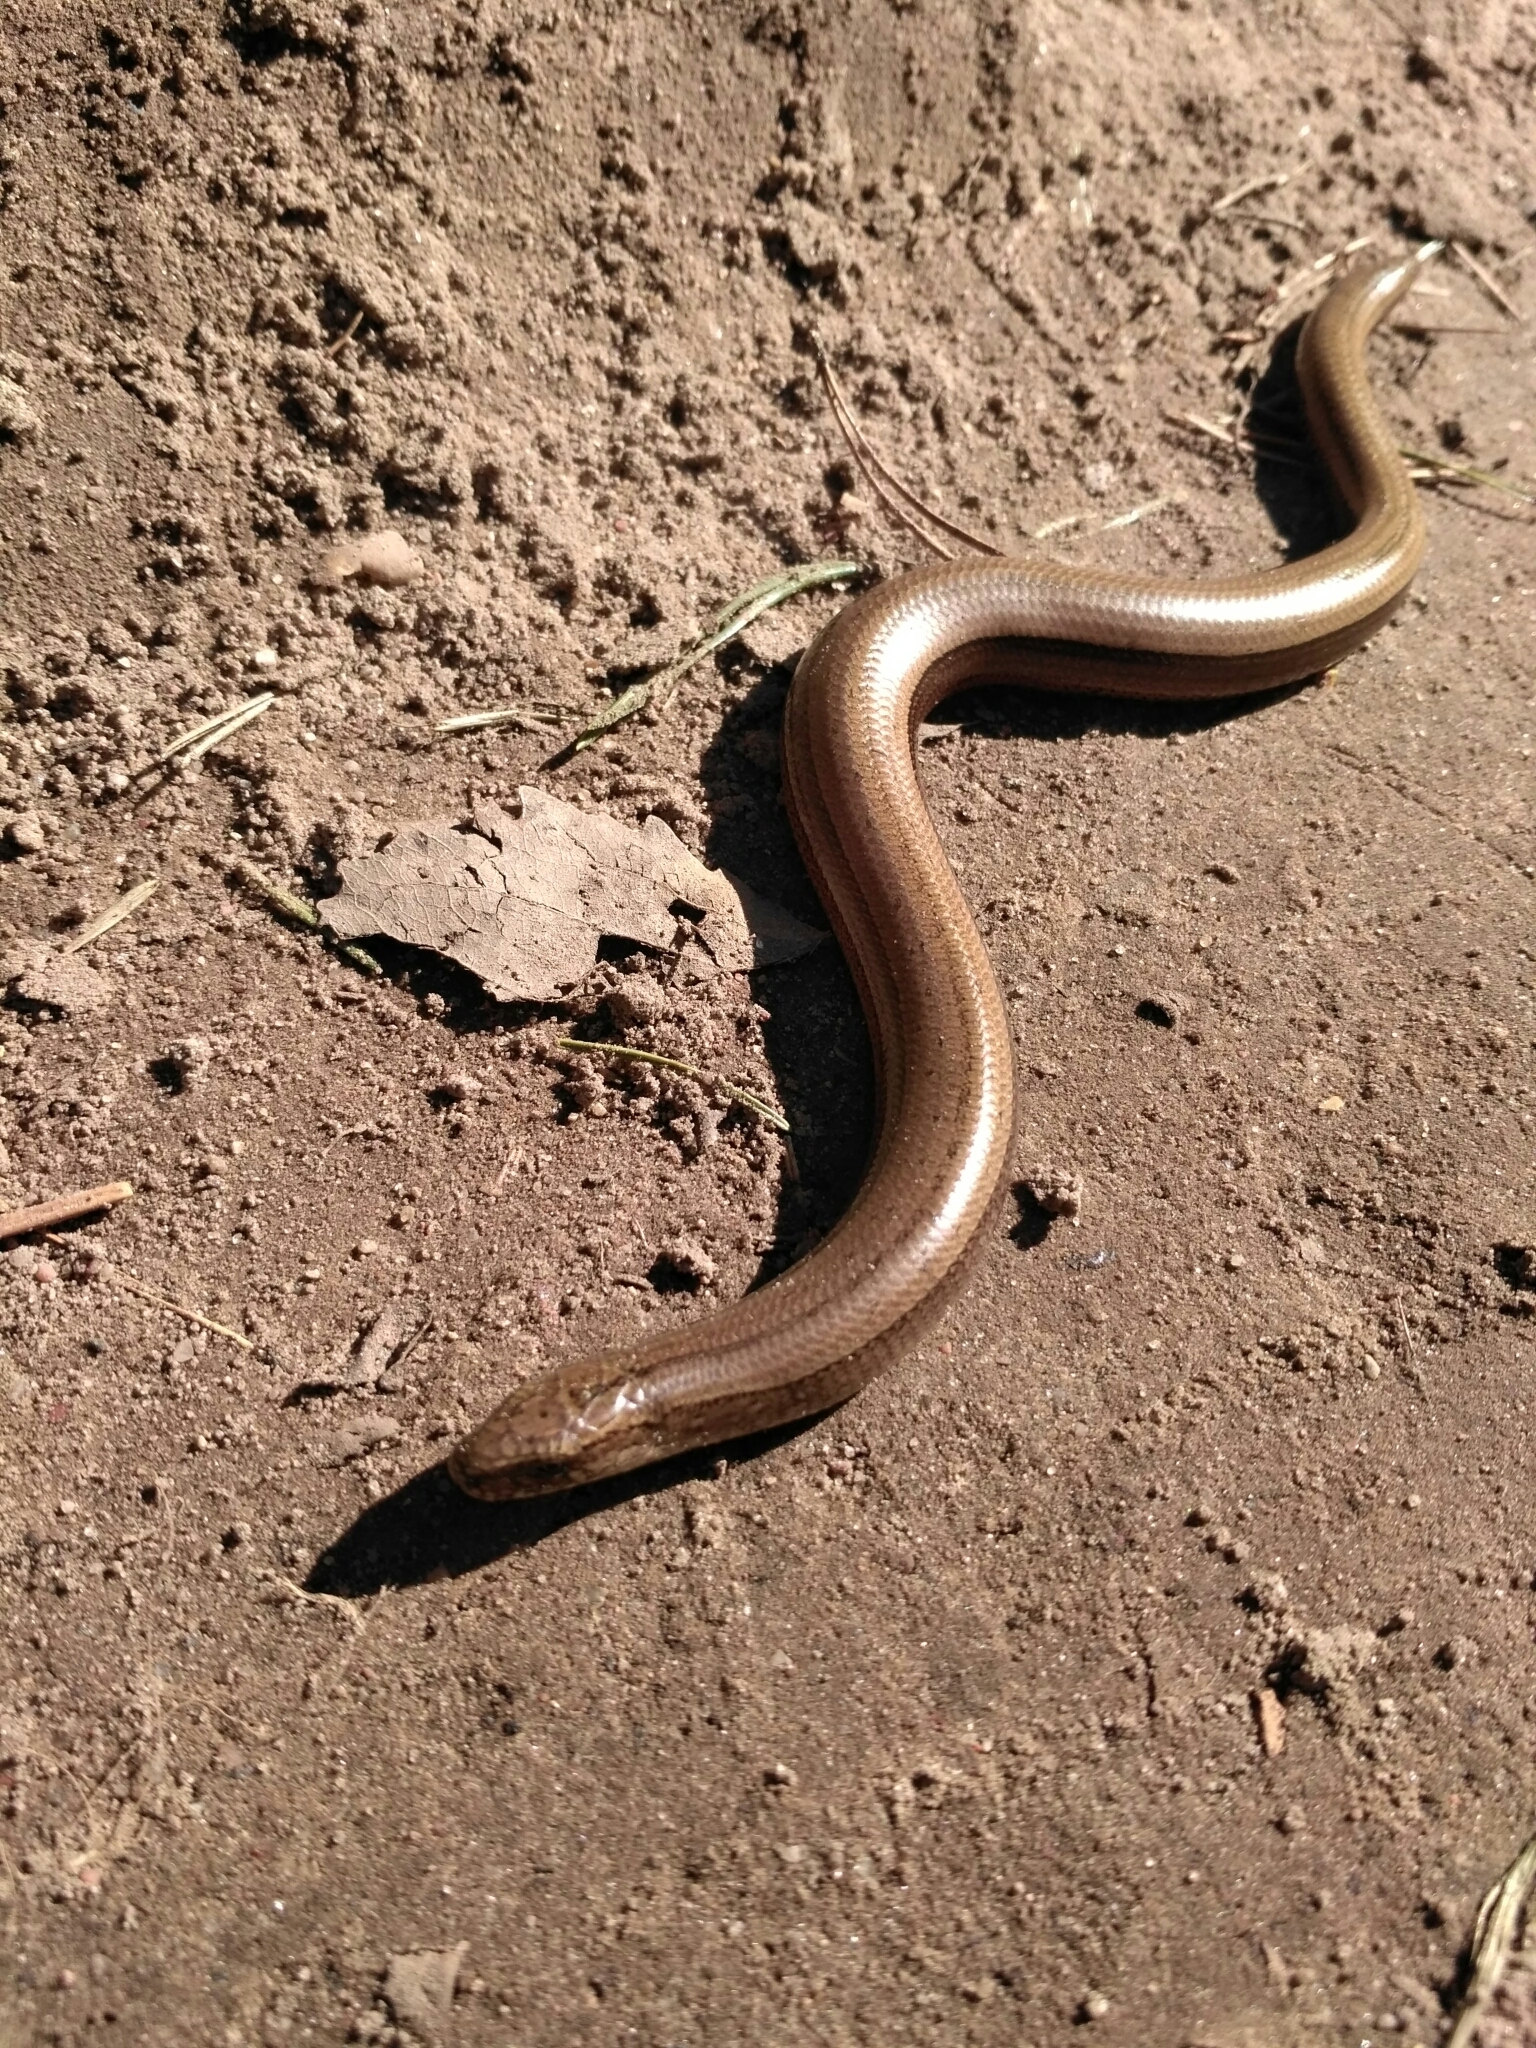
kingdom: Animalia
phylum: Chordata
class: Squamata
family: Anguidae
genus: Anguis
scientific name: Anguis fragilis
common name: Slow worm
